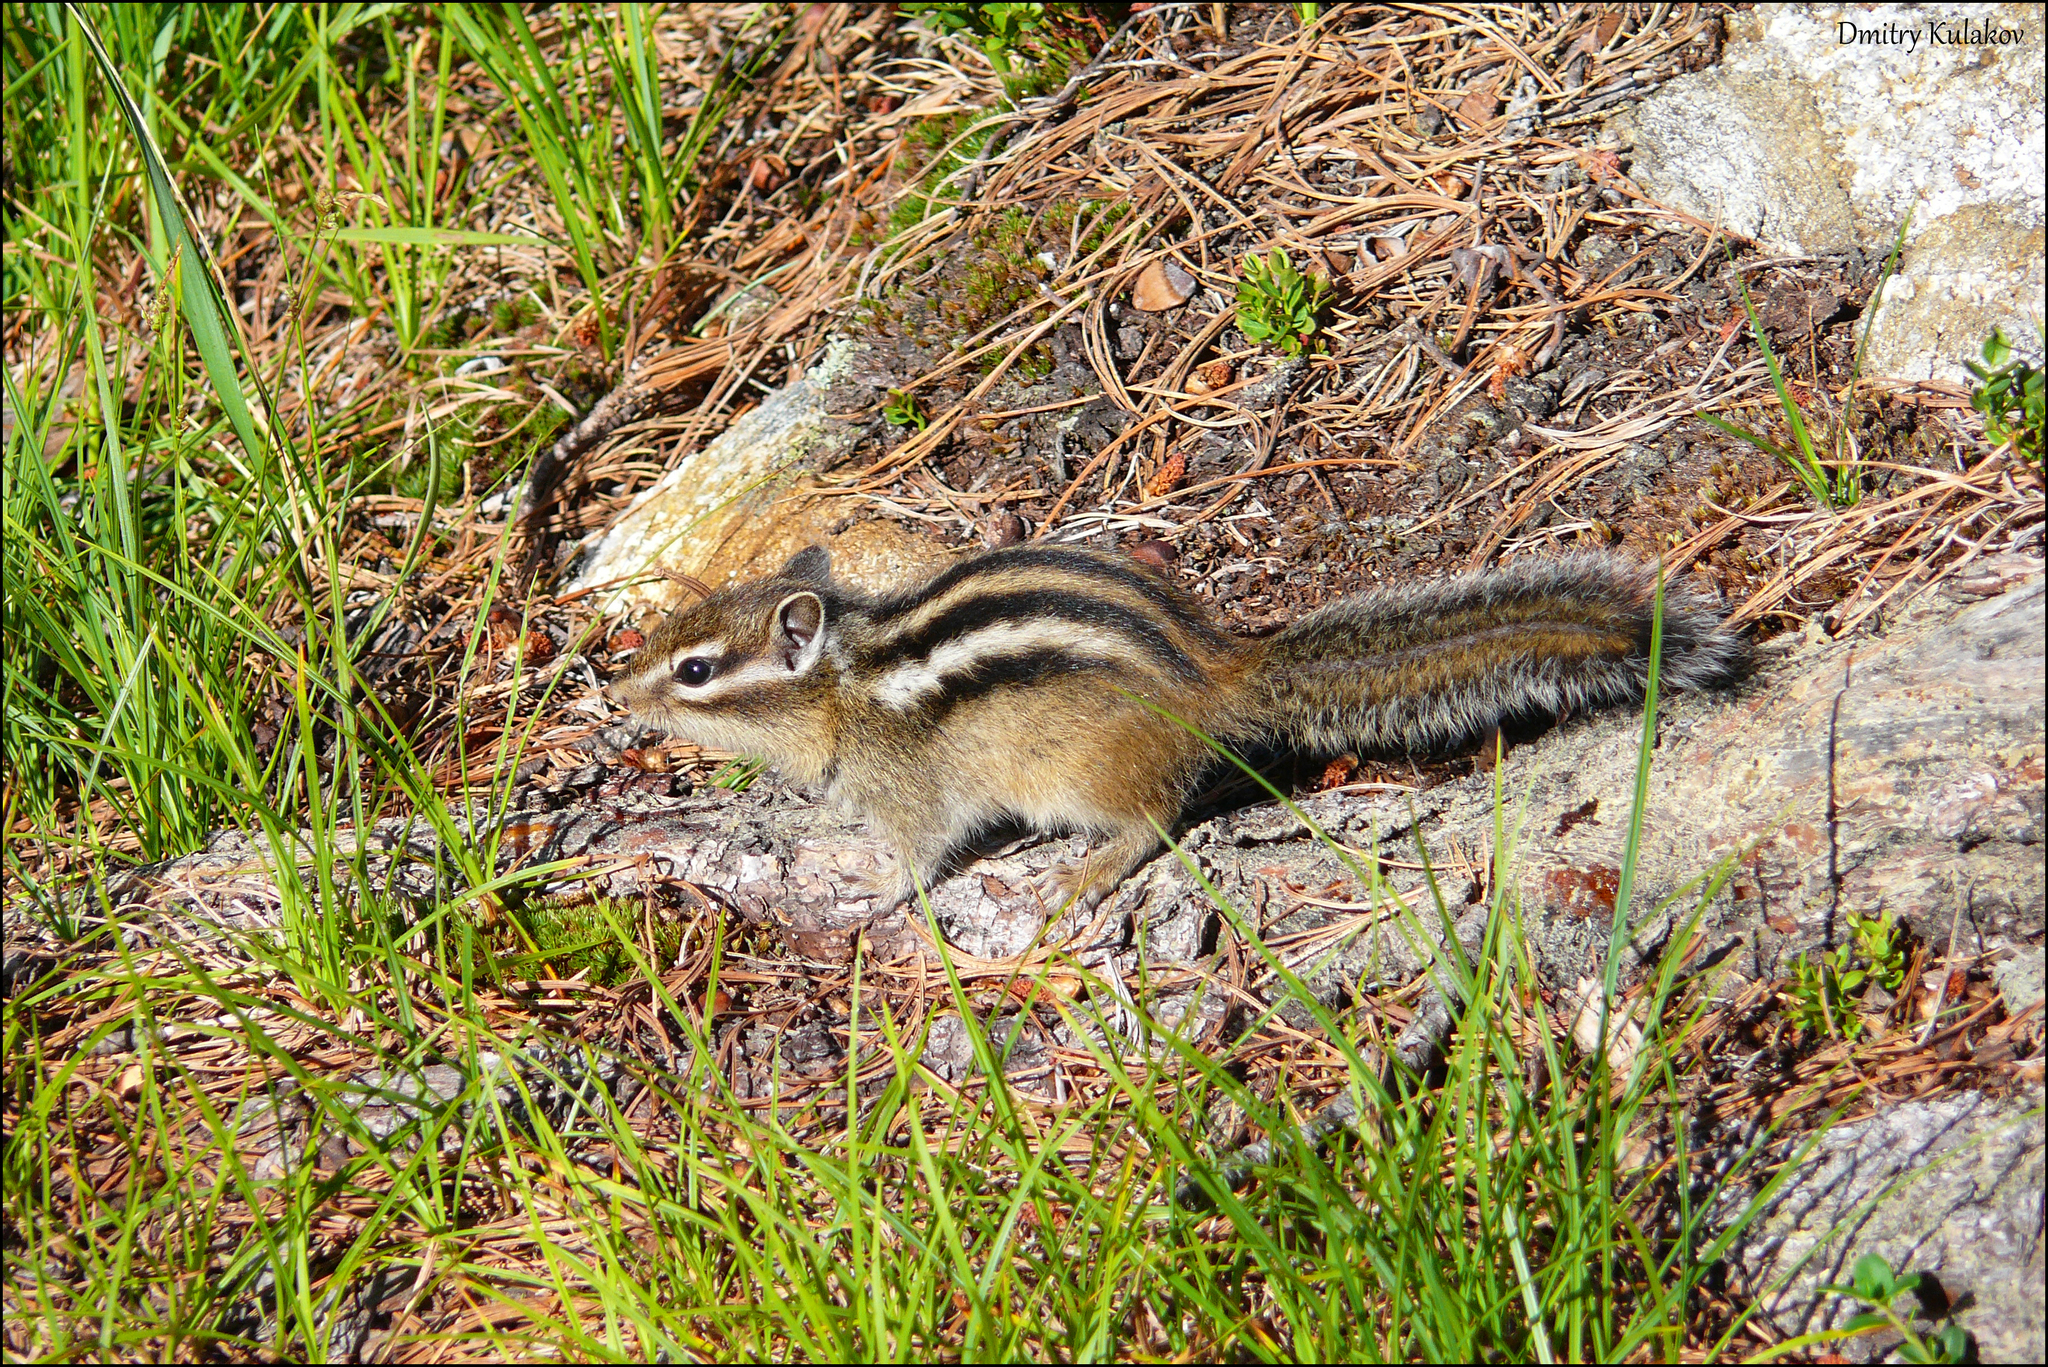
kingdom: Animalia
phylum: Chordata
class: Mammalia
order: Rodentia
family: Sciuridae
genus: Tamias
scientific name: Tamias sibiricus
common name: Siberian chipmunk
